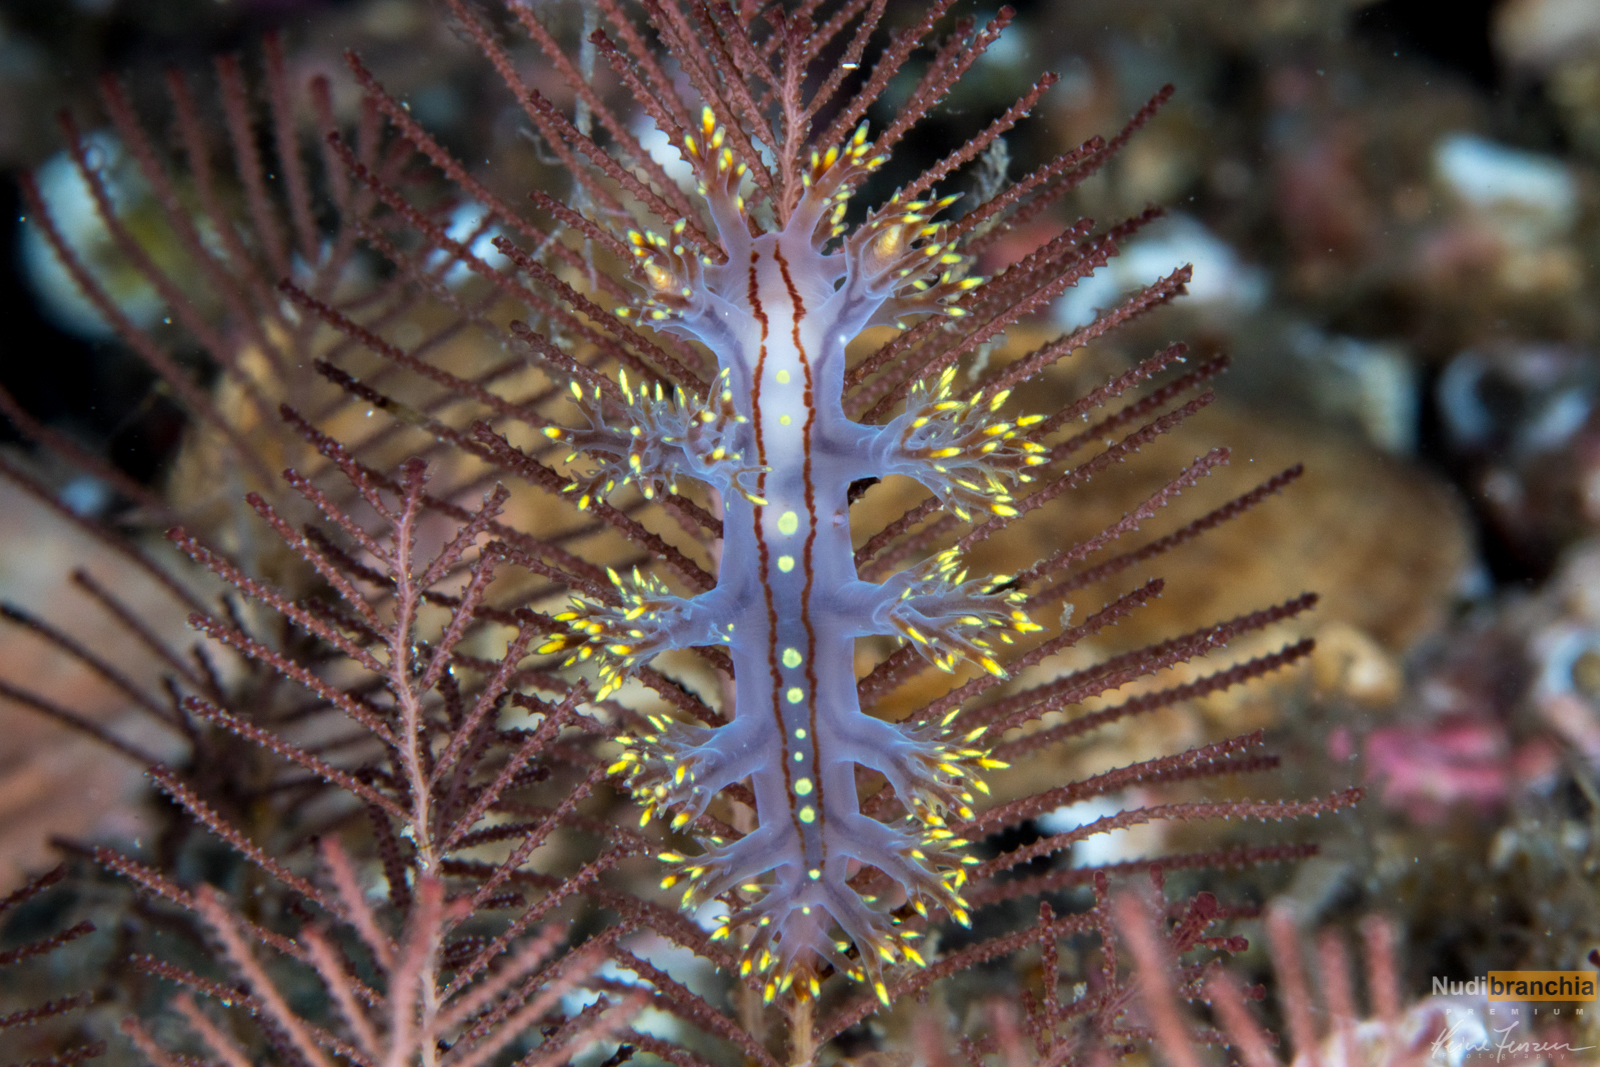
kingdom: Animalia
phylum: Mollusca
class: Gastropoda
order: Nudibranchia
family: Dendronotidae
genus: Dendronotus
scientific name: Dendronotus yrjargul
